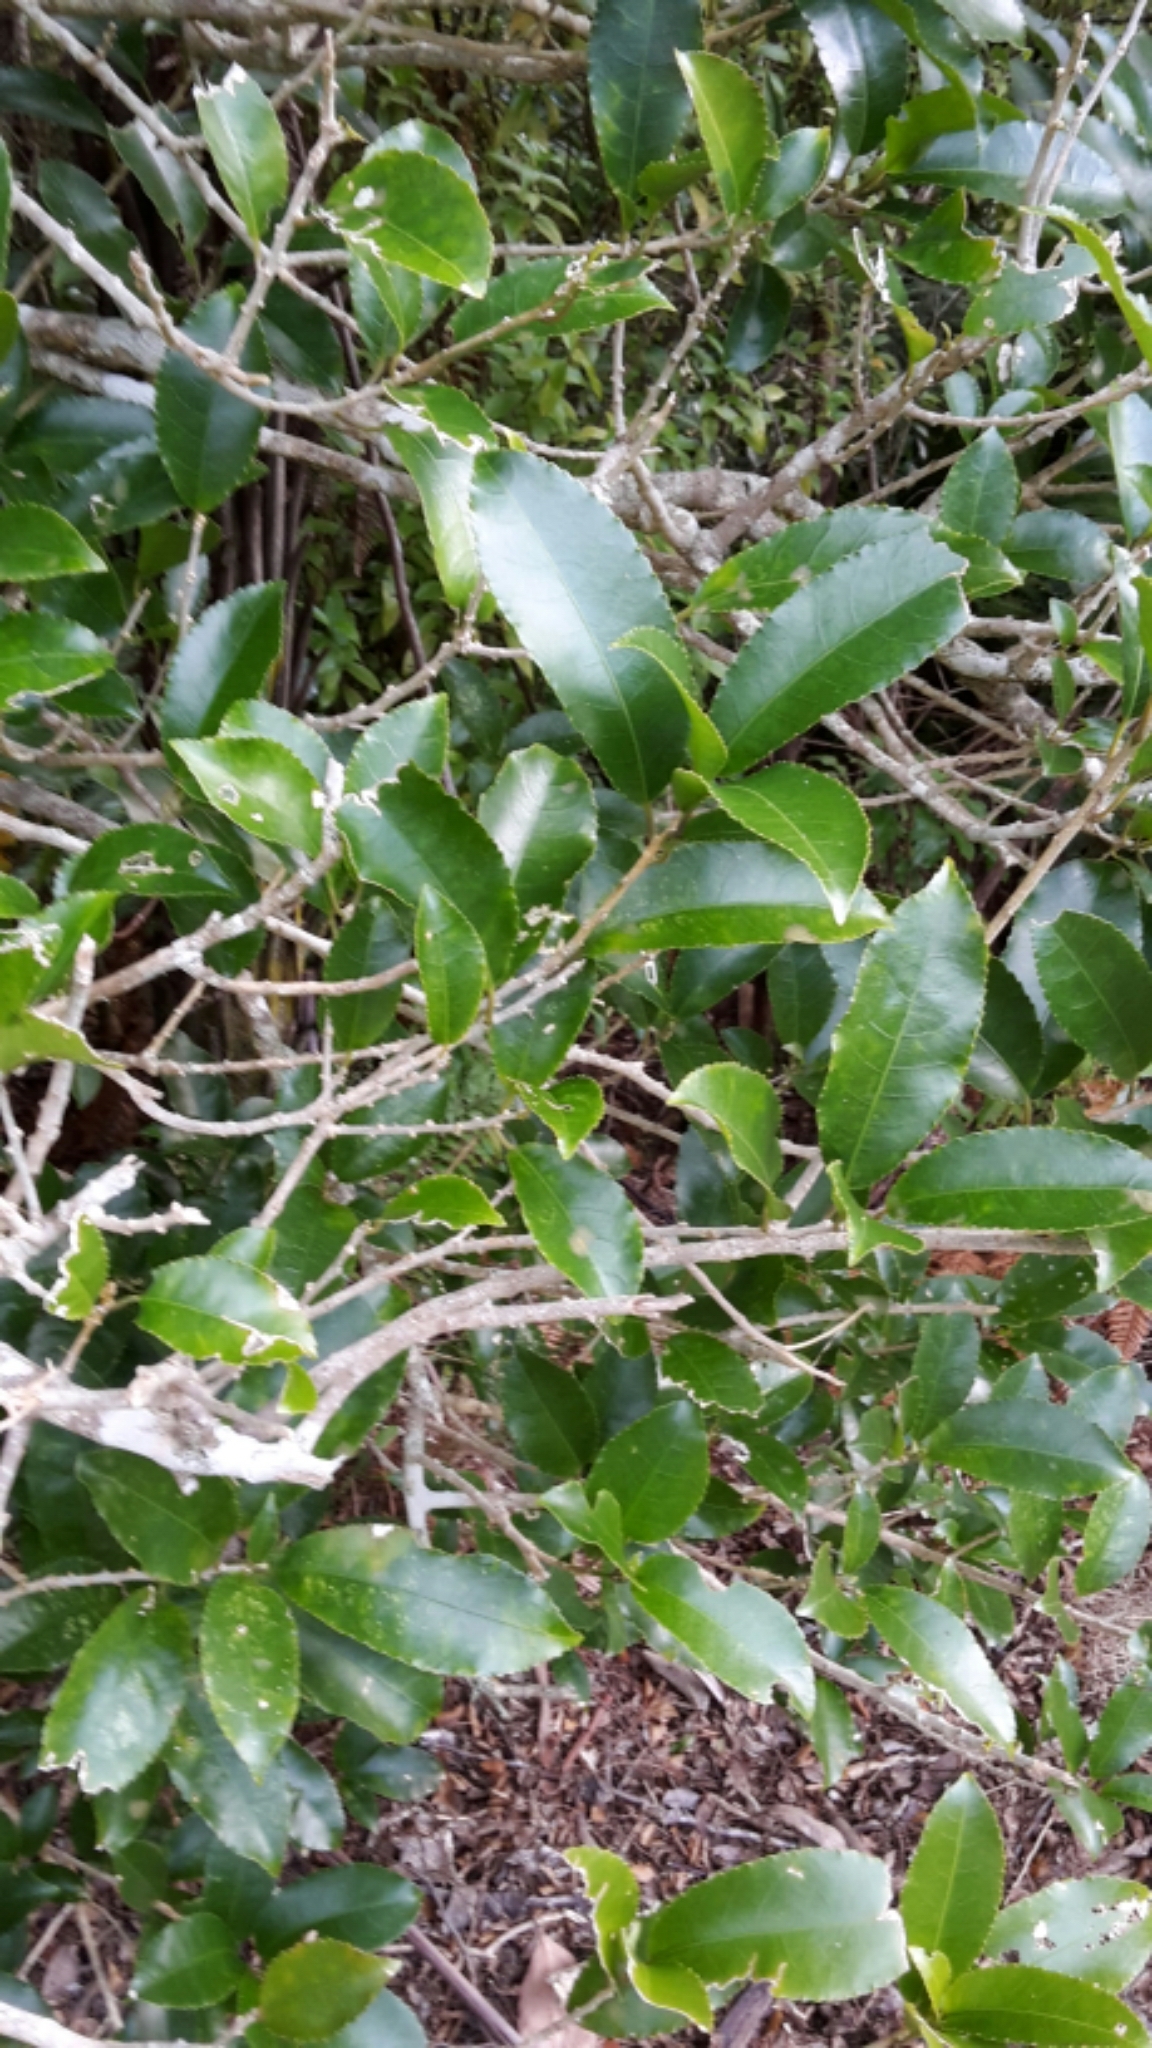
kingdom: Plantae
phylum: Tracheophyta
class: Magnoliopsida
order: Malpighiales
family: Violaceae
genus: Melicytus
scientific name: Melicytus ramiflorus
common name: Mahoe
